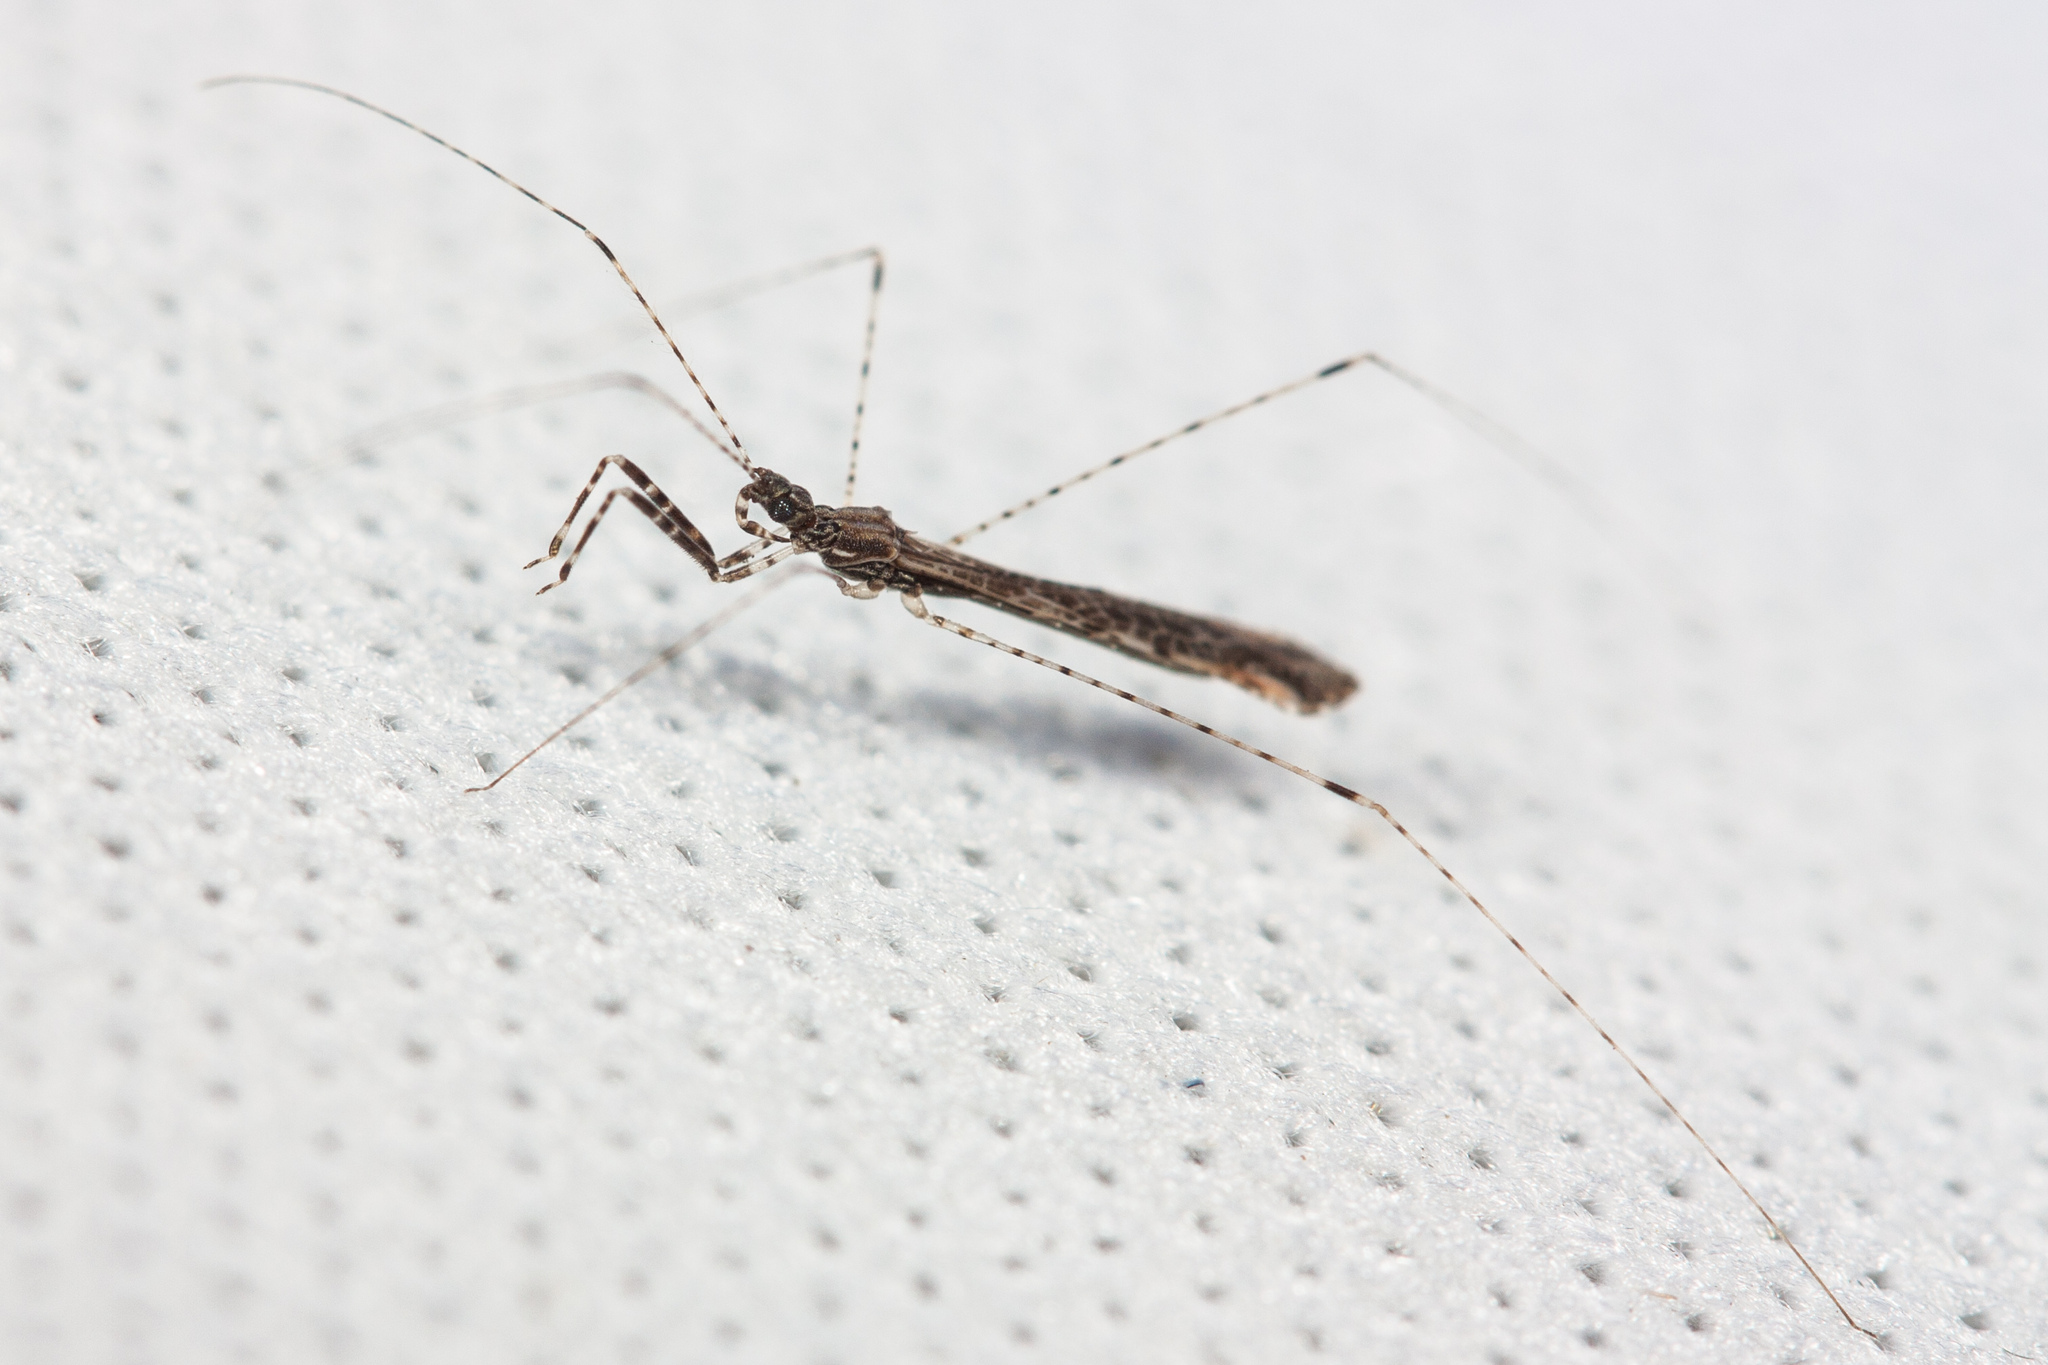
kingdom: Animalia
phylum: Arthropoda
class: Insecta
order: Hemiptera
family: Reduviidae
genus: Empicoris
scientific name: Empicoris rubromaculatus
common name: Thread-legged bug
